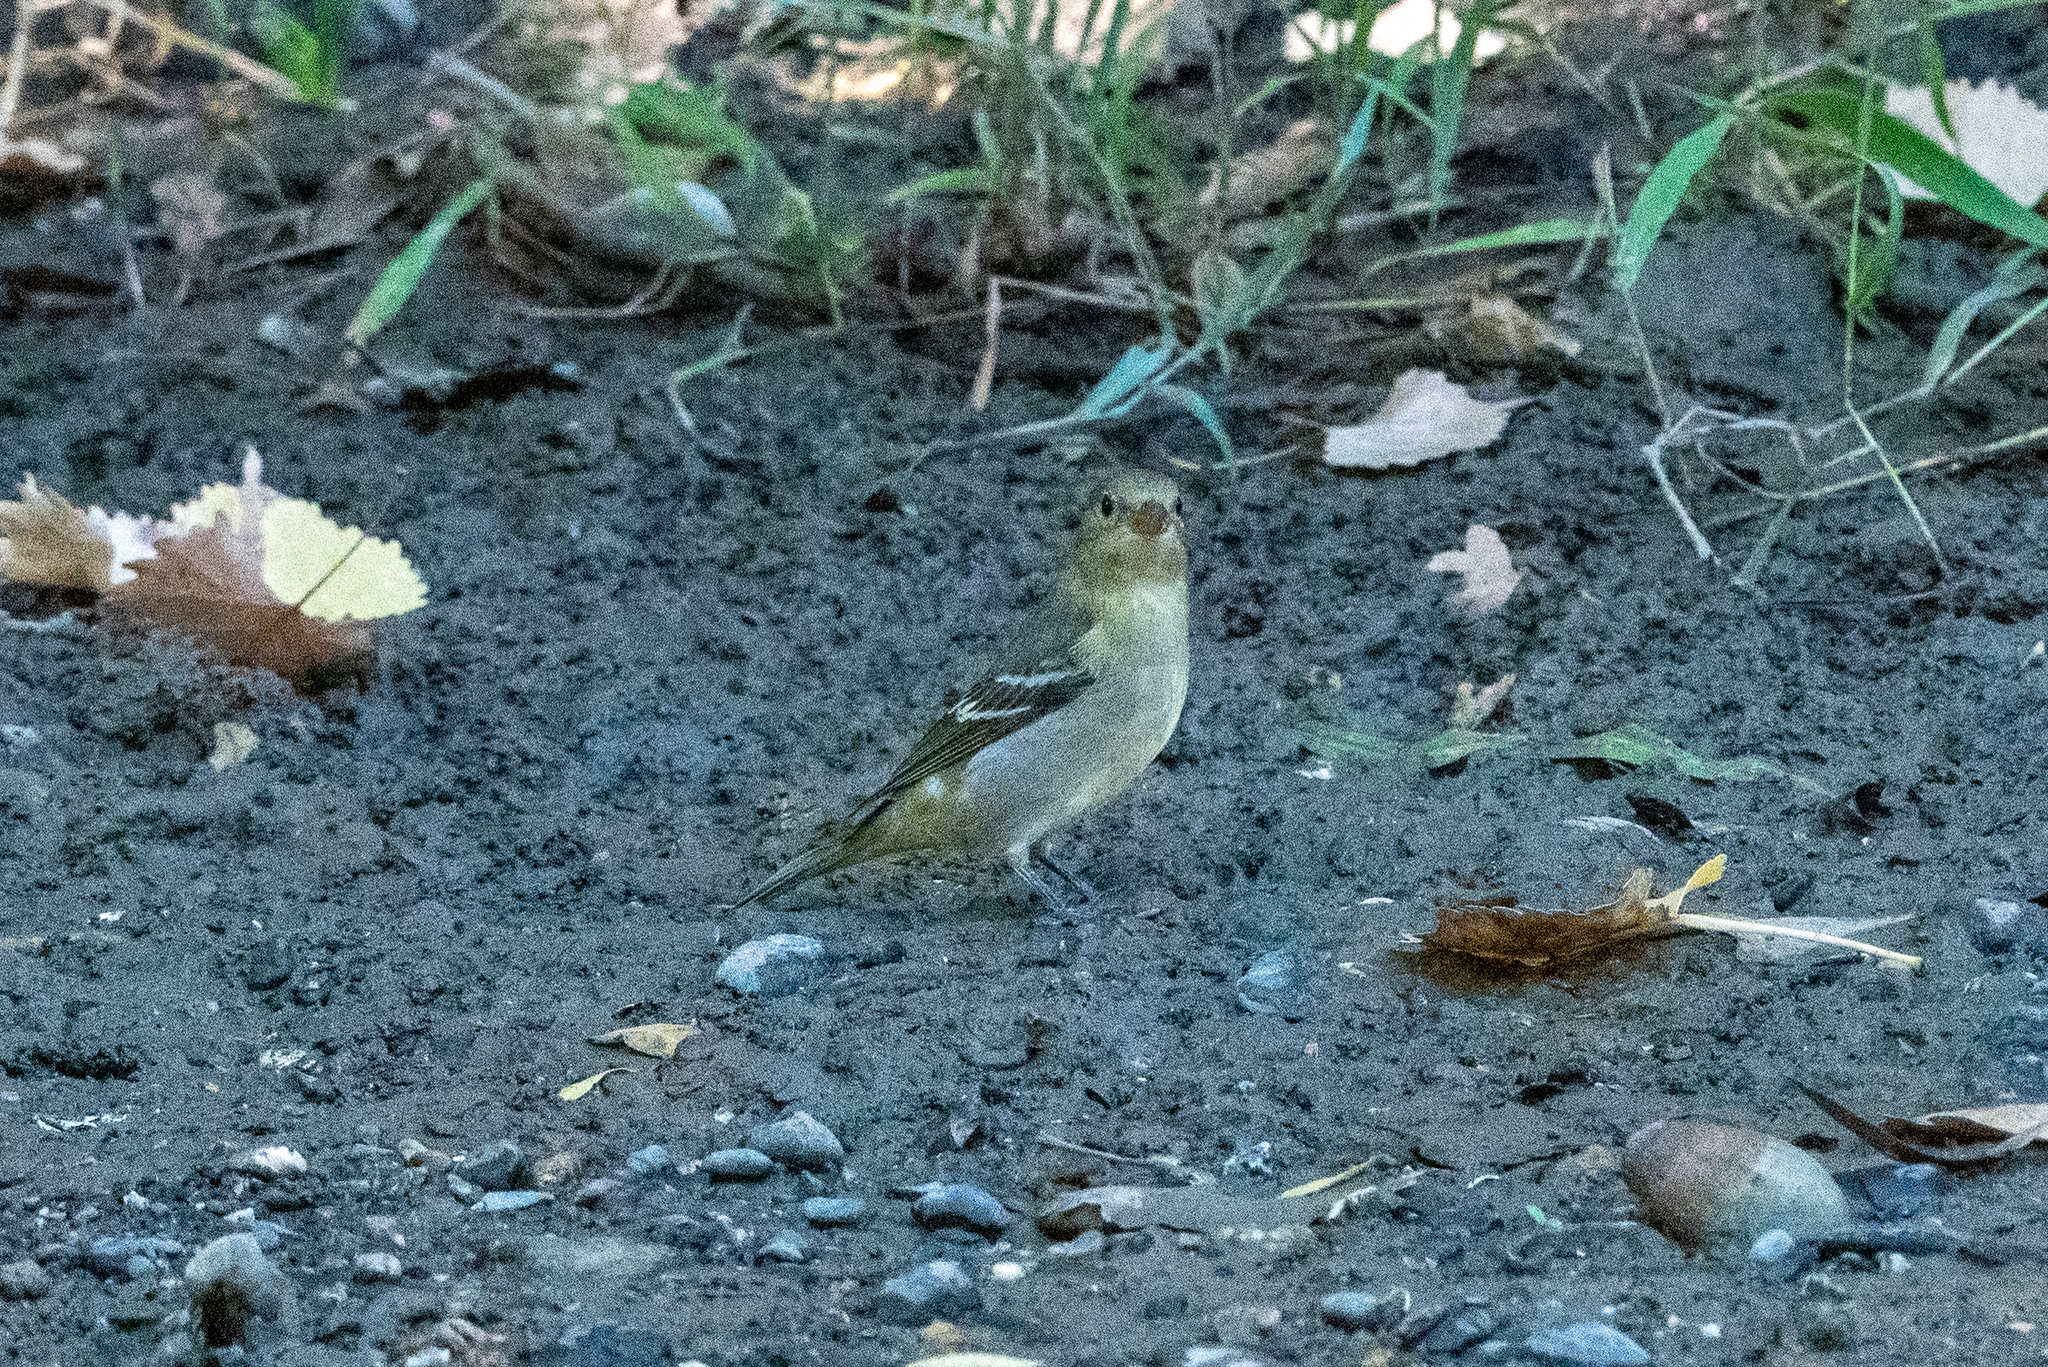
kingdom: Animalia
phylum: Chordata
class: Aves
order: Passeriformes
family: Cardinalidae
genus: Piranga
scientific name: Piranga ludoviciana
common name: Western tanager
